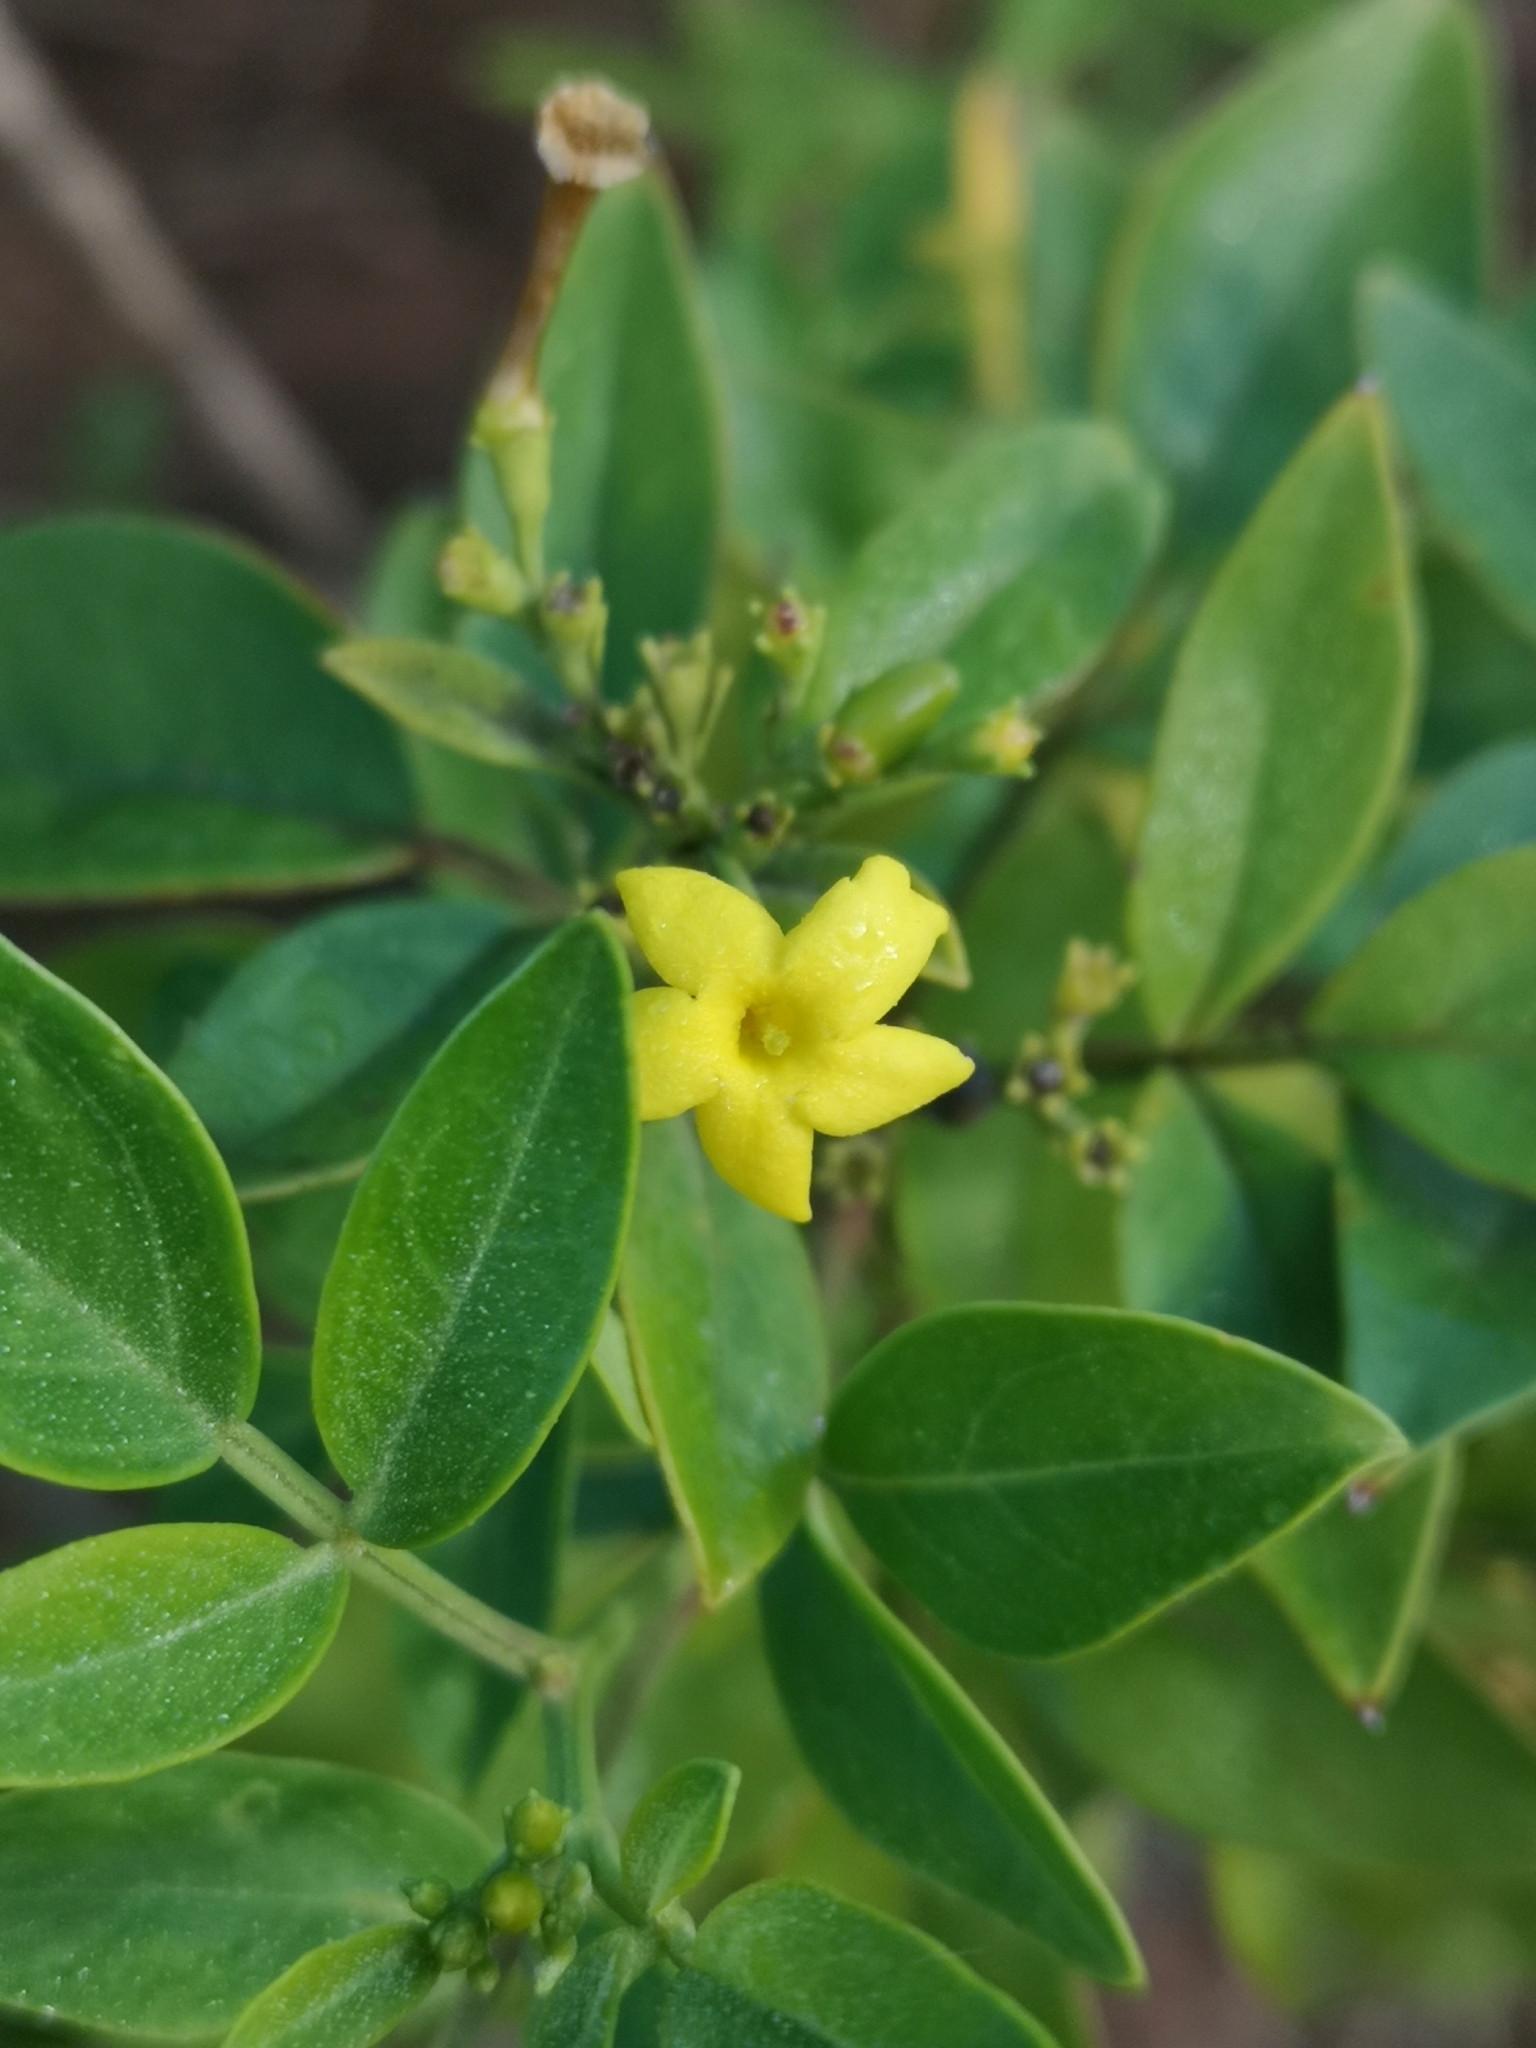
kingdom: Plantae
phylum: Tracheophyta
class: Magnoliopsida
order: Lamiales
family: Oleaceae
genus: Chrysojasminum
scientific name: Chrysojasminum odoratissimum
